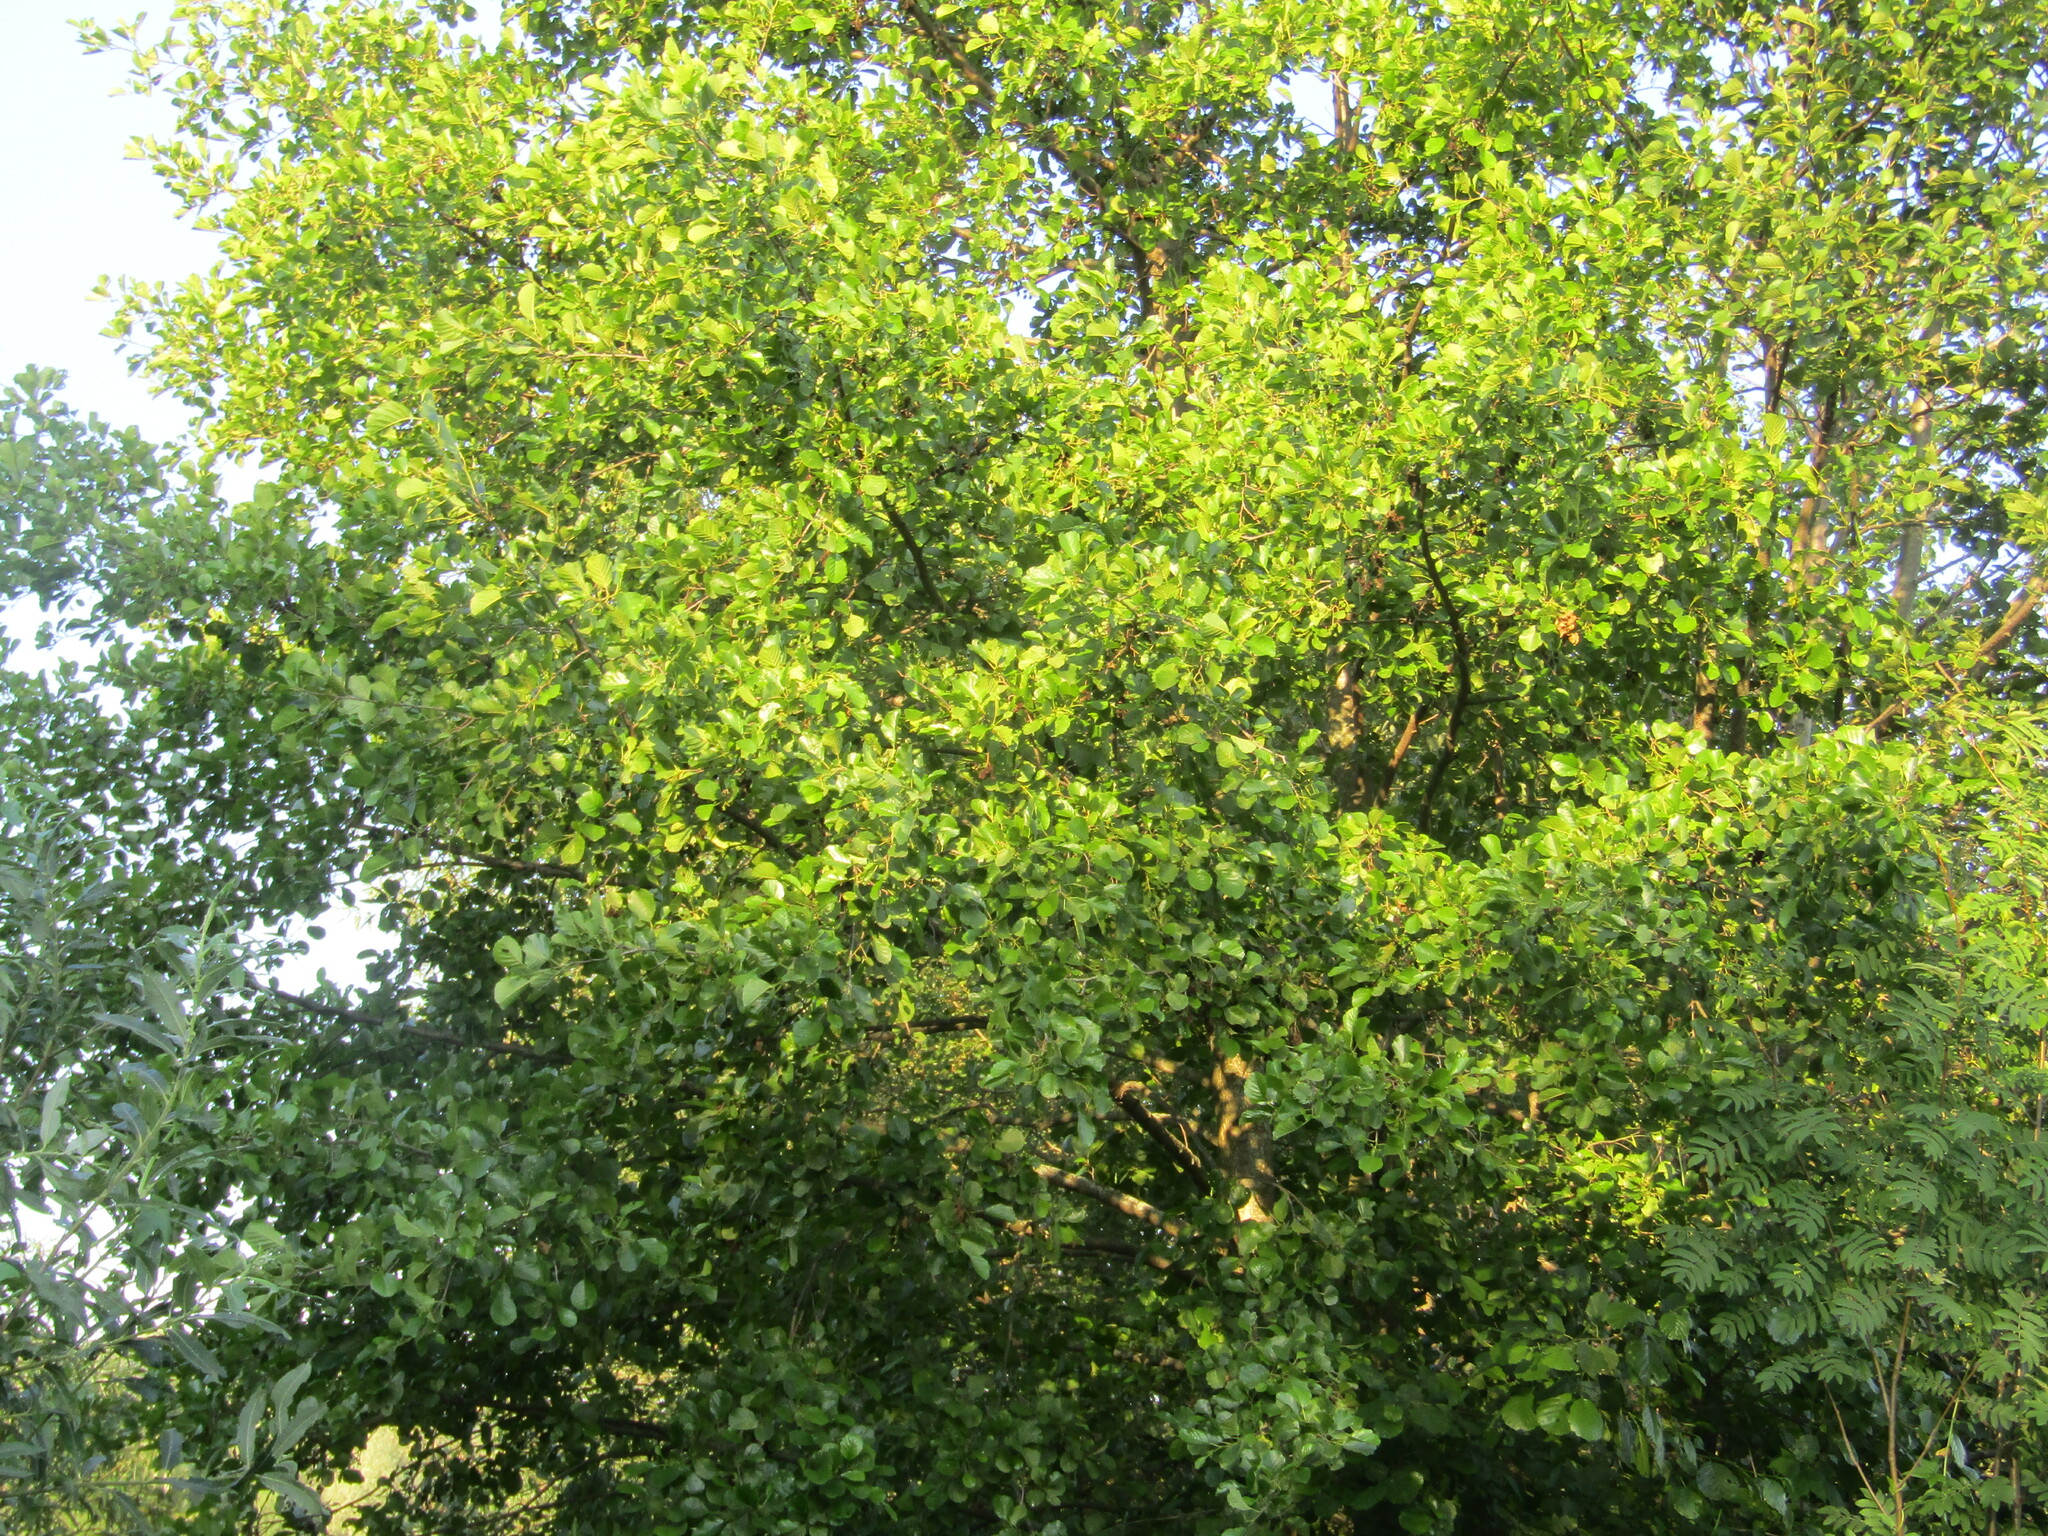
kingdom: Plantae
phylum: Tracheophyta
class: Magnoliopsida
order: Fagales
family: Betulaceae
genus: Alnus
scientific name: Alnus glutinosa
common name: Black alder
